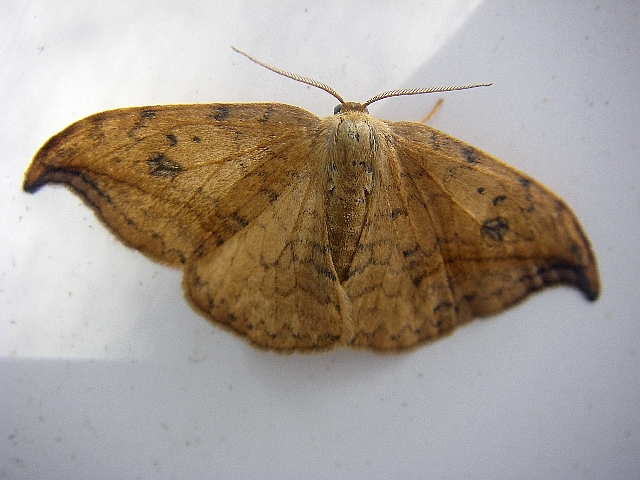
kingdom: Animalia
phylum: Arthropoda
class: Insecta
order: Lepidoptera
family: Drepanidae
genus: Drepana
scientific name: Drepana falcataria
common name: Pebble hook-tip
